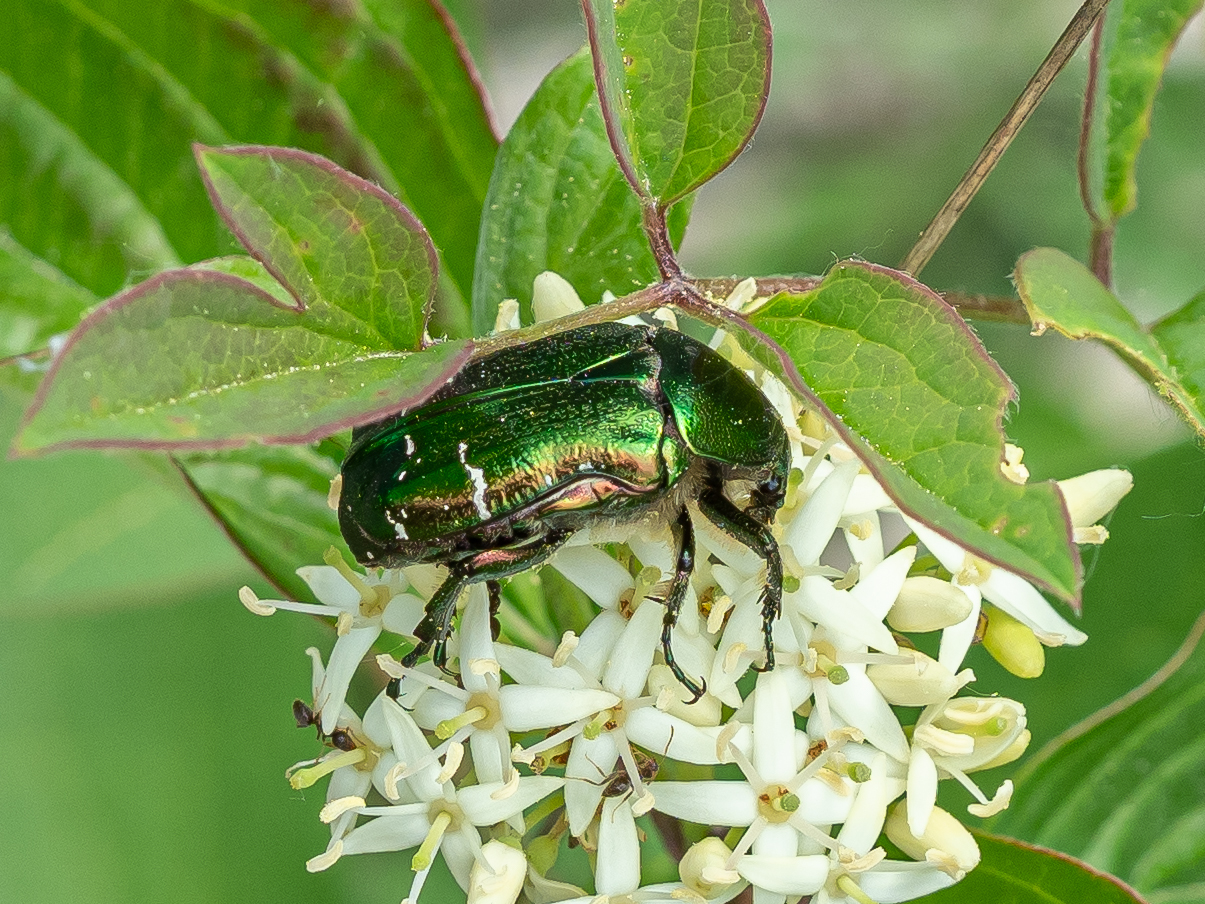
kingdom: Animalia
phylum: Arthropoda
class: Insecta
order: Coleoptera
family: Scarabaeidae
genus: Cetonia
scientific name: Cetonia aurata
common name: Rose chafer
